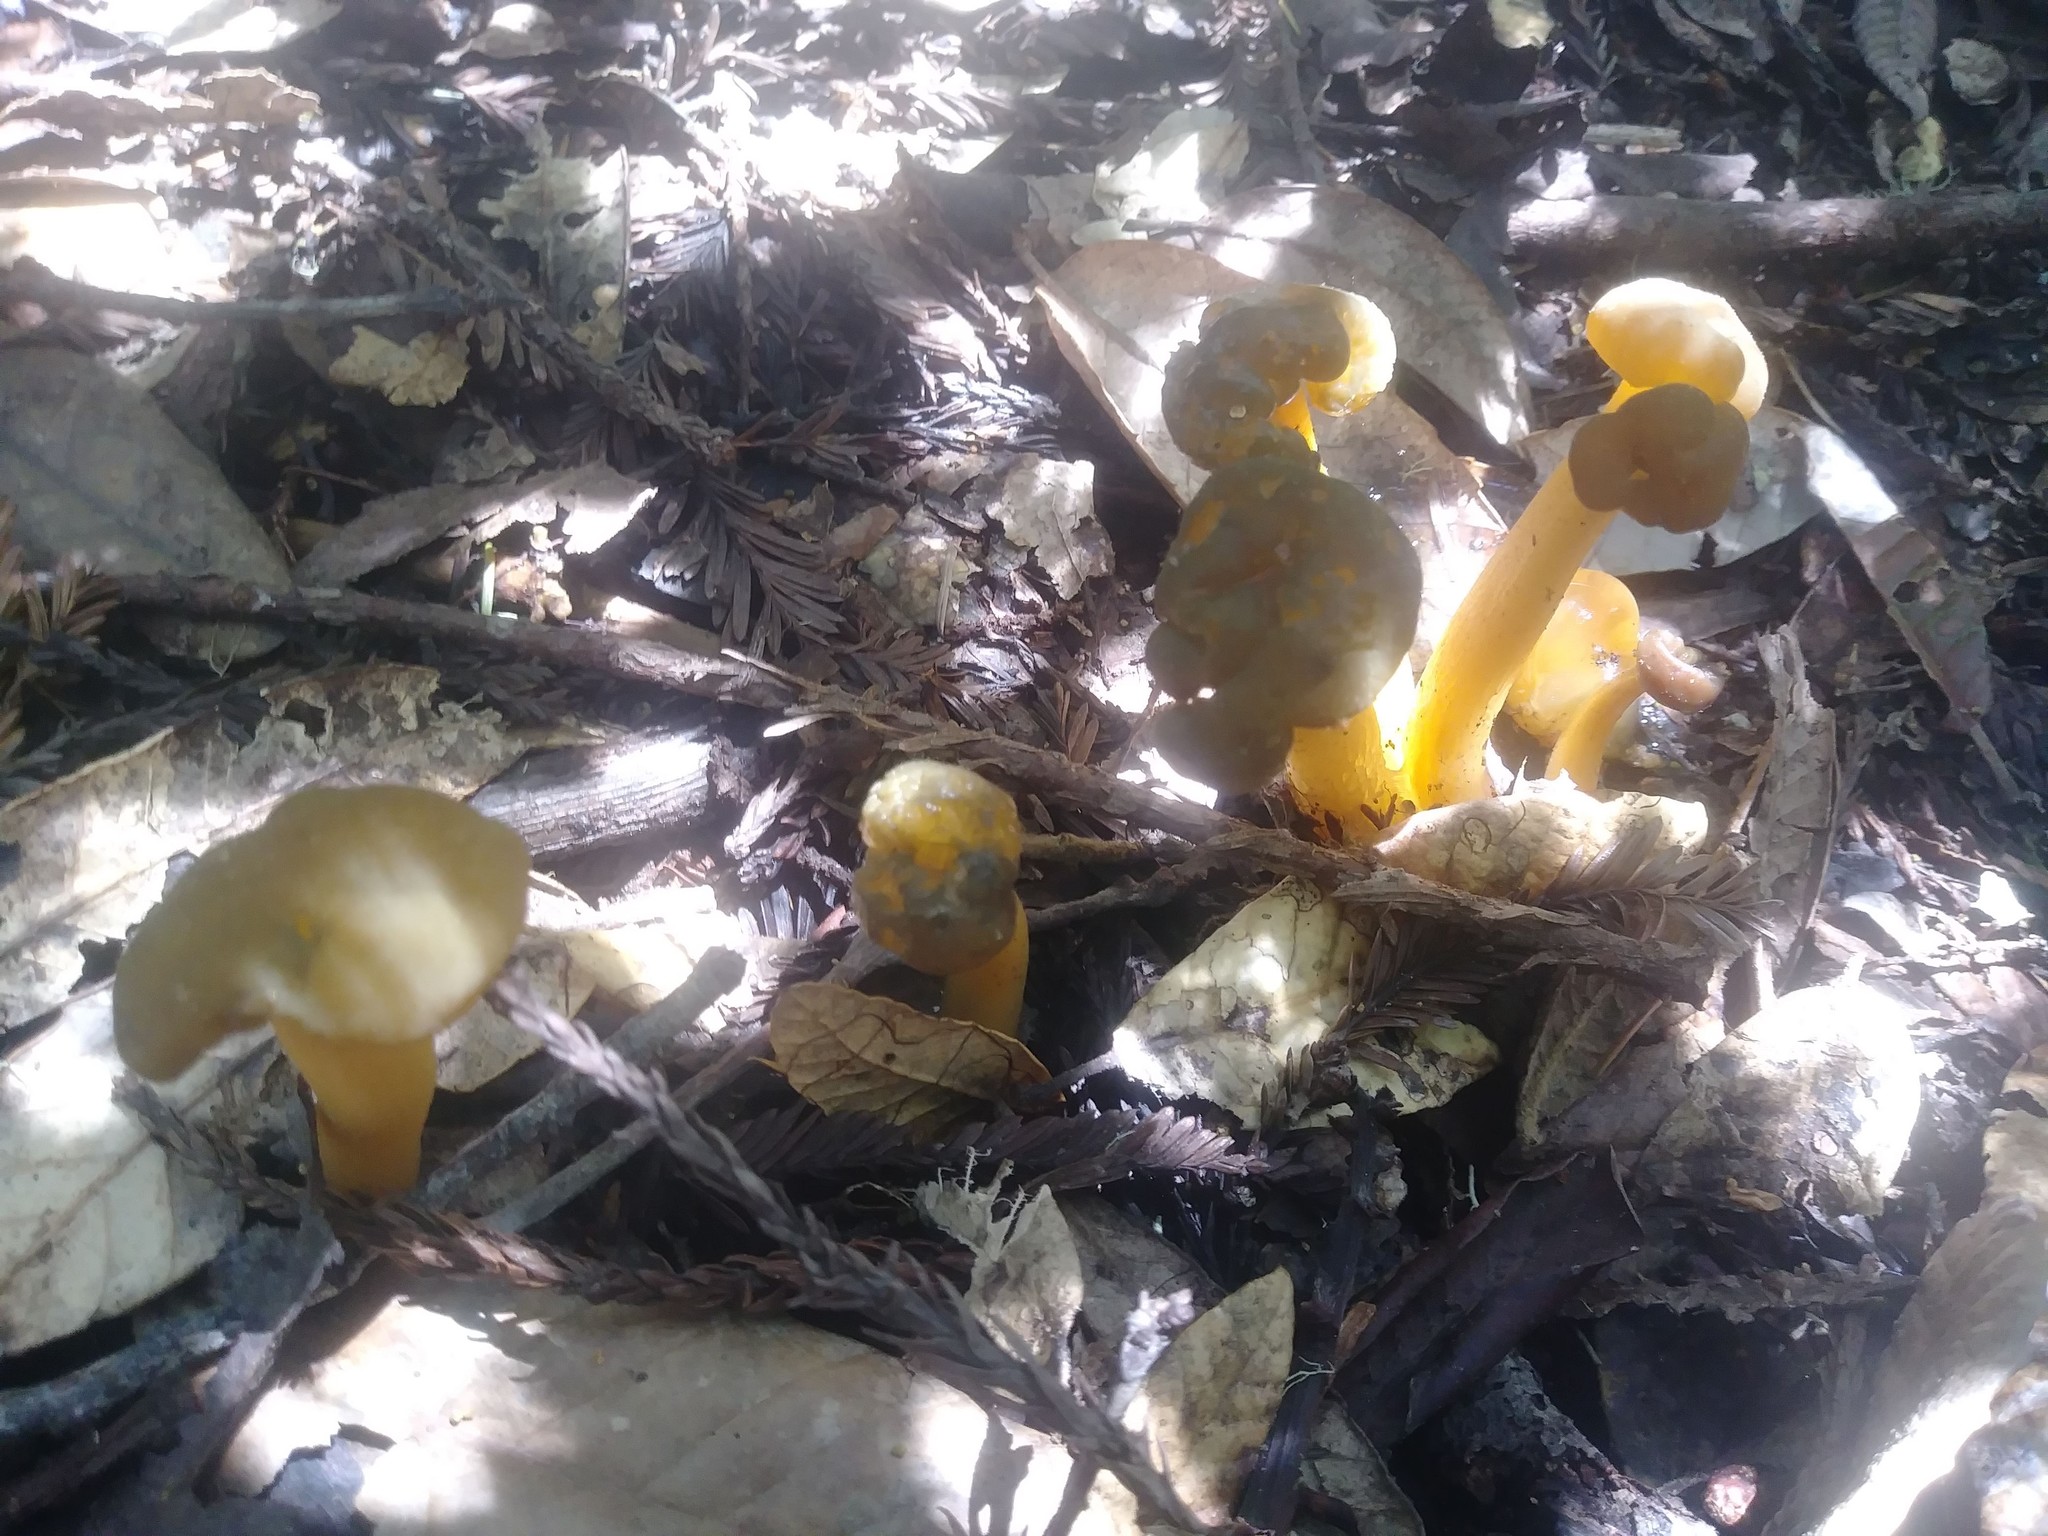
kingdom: Fungi
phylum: Ascomycota
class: Leotiomycetes
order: Leotiales
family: Leotiaceae
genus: Leotia
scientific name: Leotia lubrica
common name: Jellybaby
